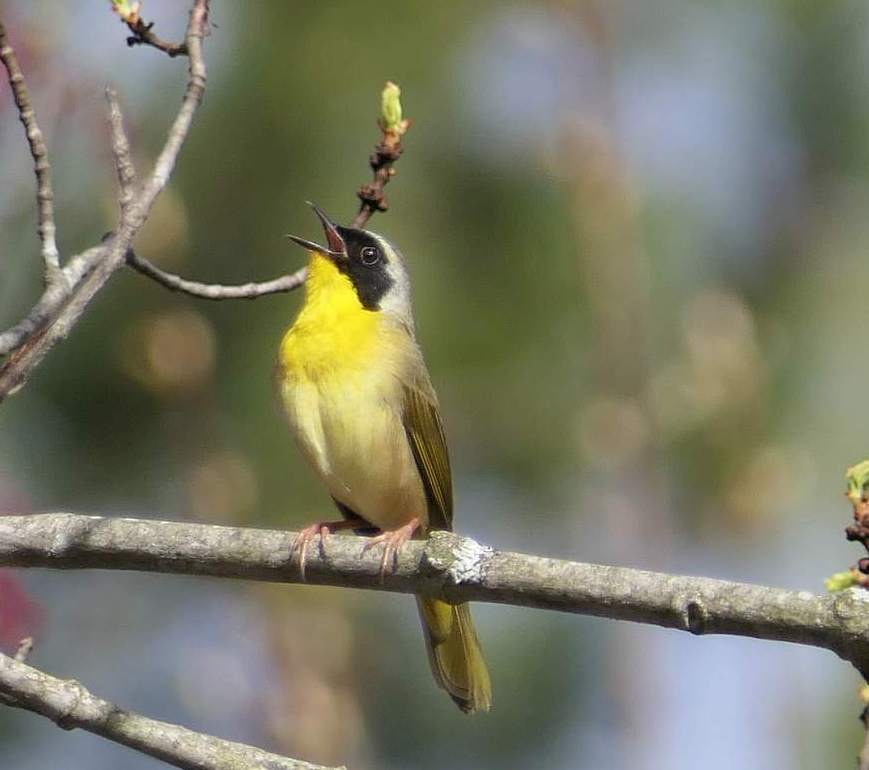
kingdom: Animalia
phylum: Chordata
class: Aves
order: Passeriformes
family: Parulidae
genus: Geothlypis
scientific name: Geothlypis trichas
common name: Common yellowthroat
